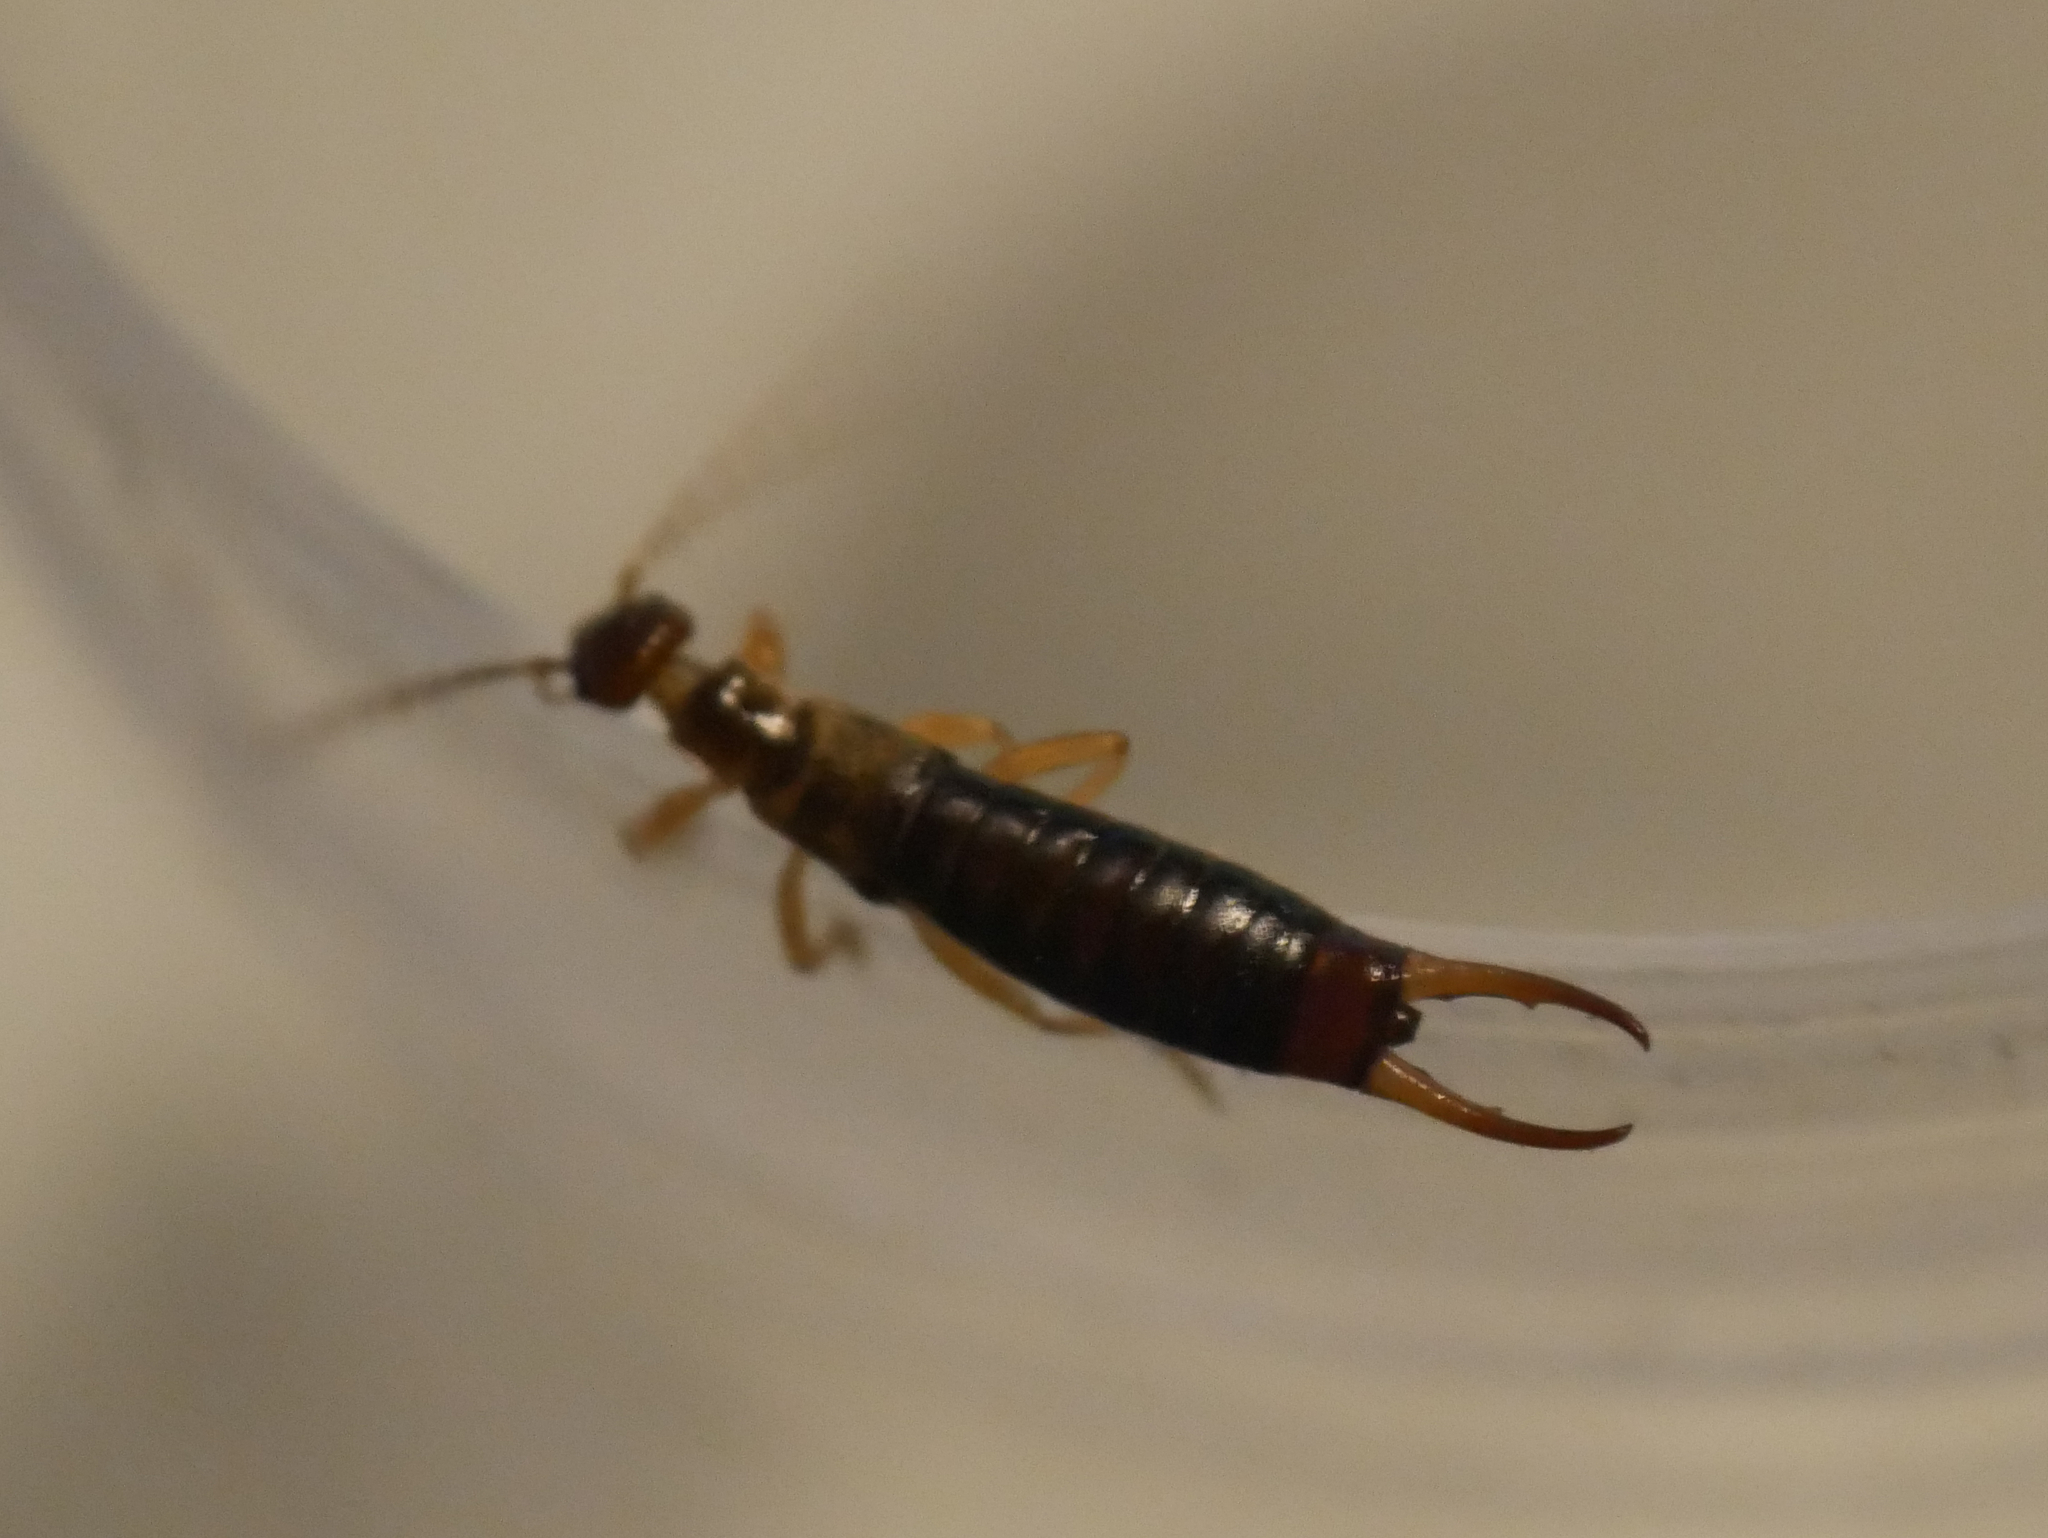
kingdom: Animalia
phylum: Arthropoda
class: Insecta
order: Dermaptera
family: Forficulidae
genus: Apterygida
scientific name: Apterygida albipennis
